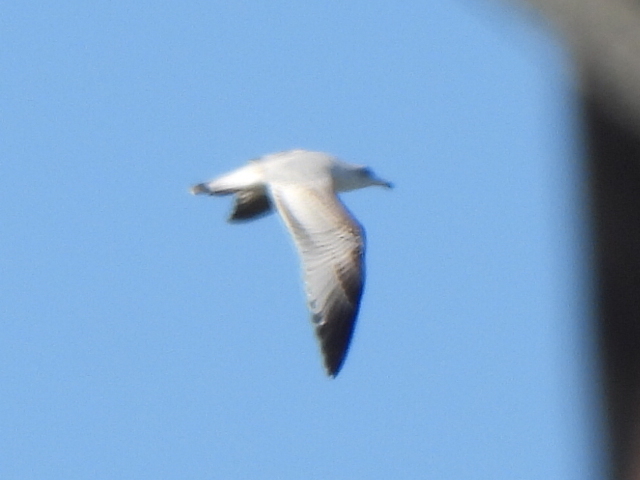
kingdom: Animalia
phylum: Chordata
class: Aves
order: Charadriiformes
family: Laridae
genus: Larus
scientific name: Larus delawarensis
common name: Ring-billed gull
